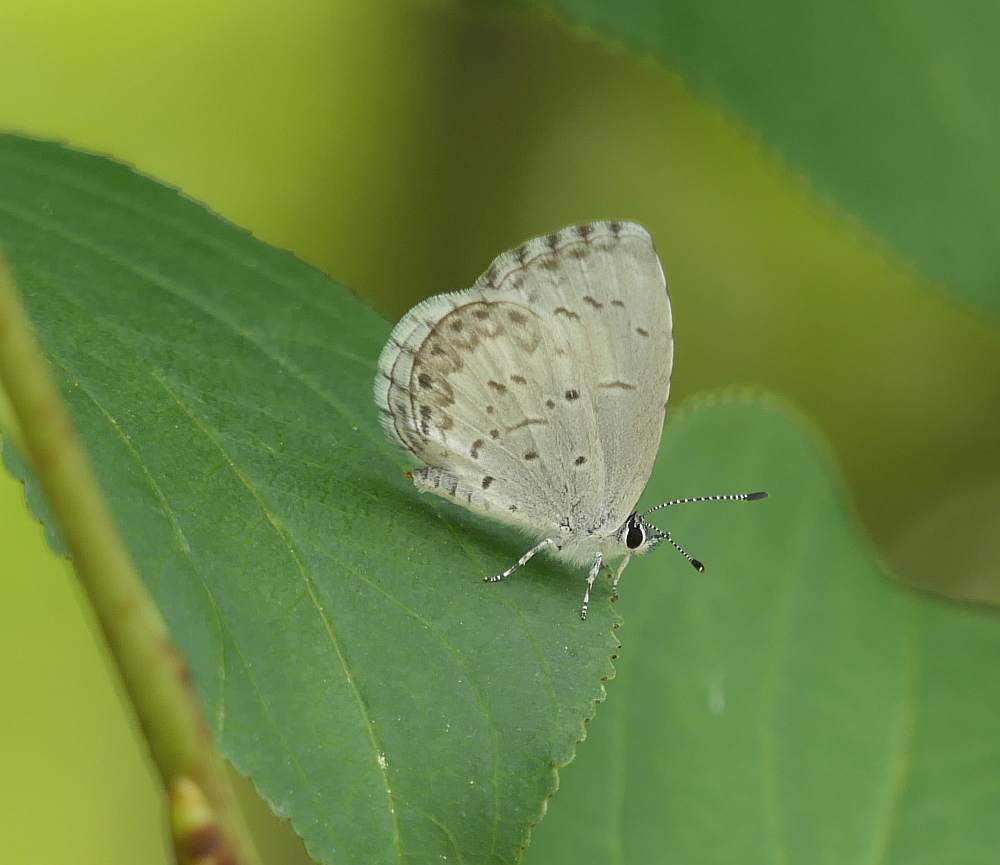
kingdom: Animalia
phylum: Arthropoda
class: Insecta
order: Lepidoptera
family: Lycaenidae
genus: Celastrina
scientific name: Celastrina lucia
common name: Lucia azure
